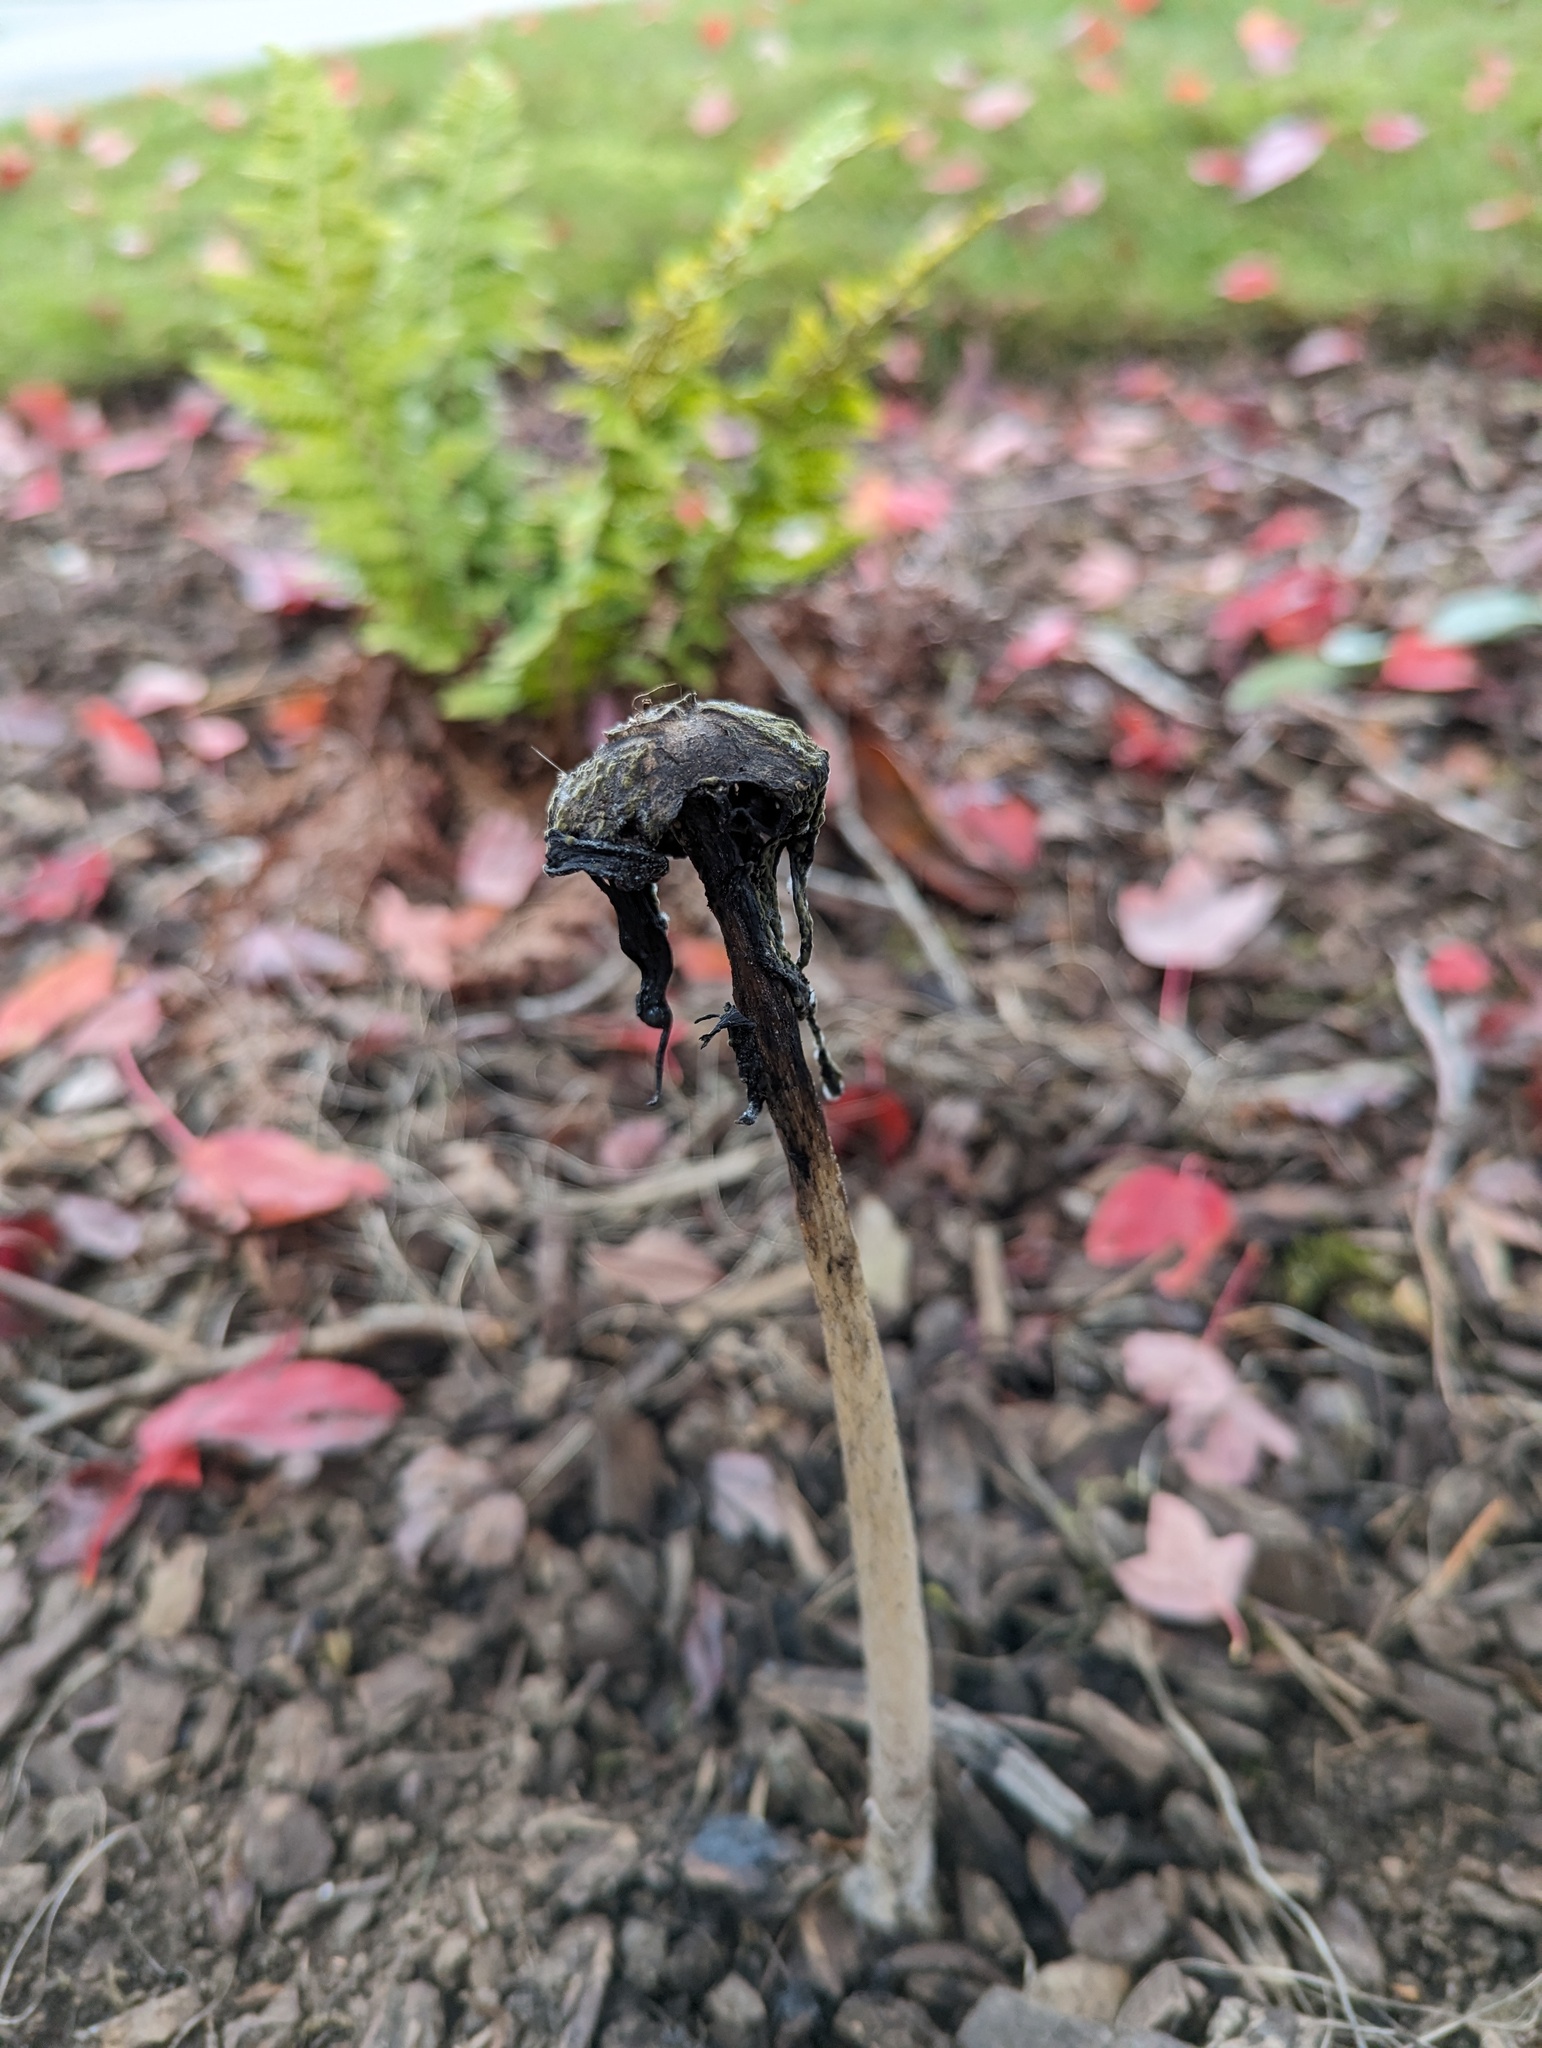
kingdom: Fungi
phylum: Basidiomycota
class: Agaricomycetes
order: Agaricales
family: Agaricaceae
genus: Coprinus
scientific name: Coprinus comatus
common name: Lawyer's wig
